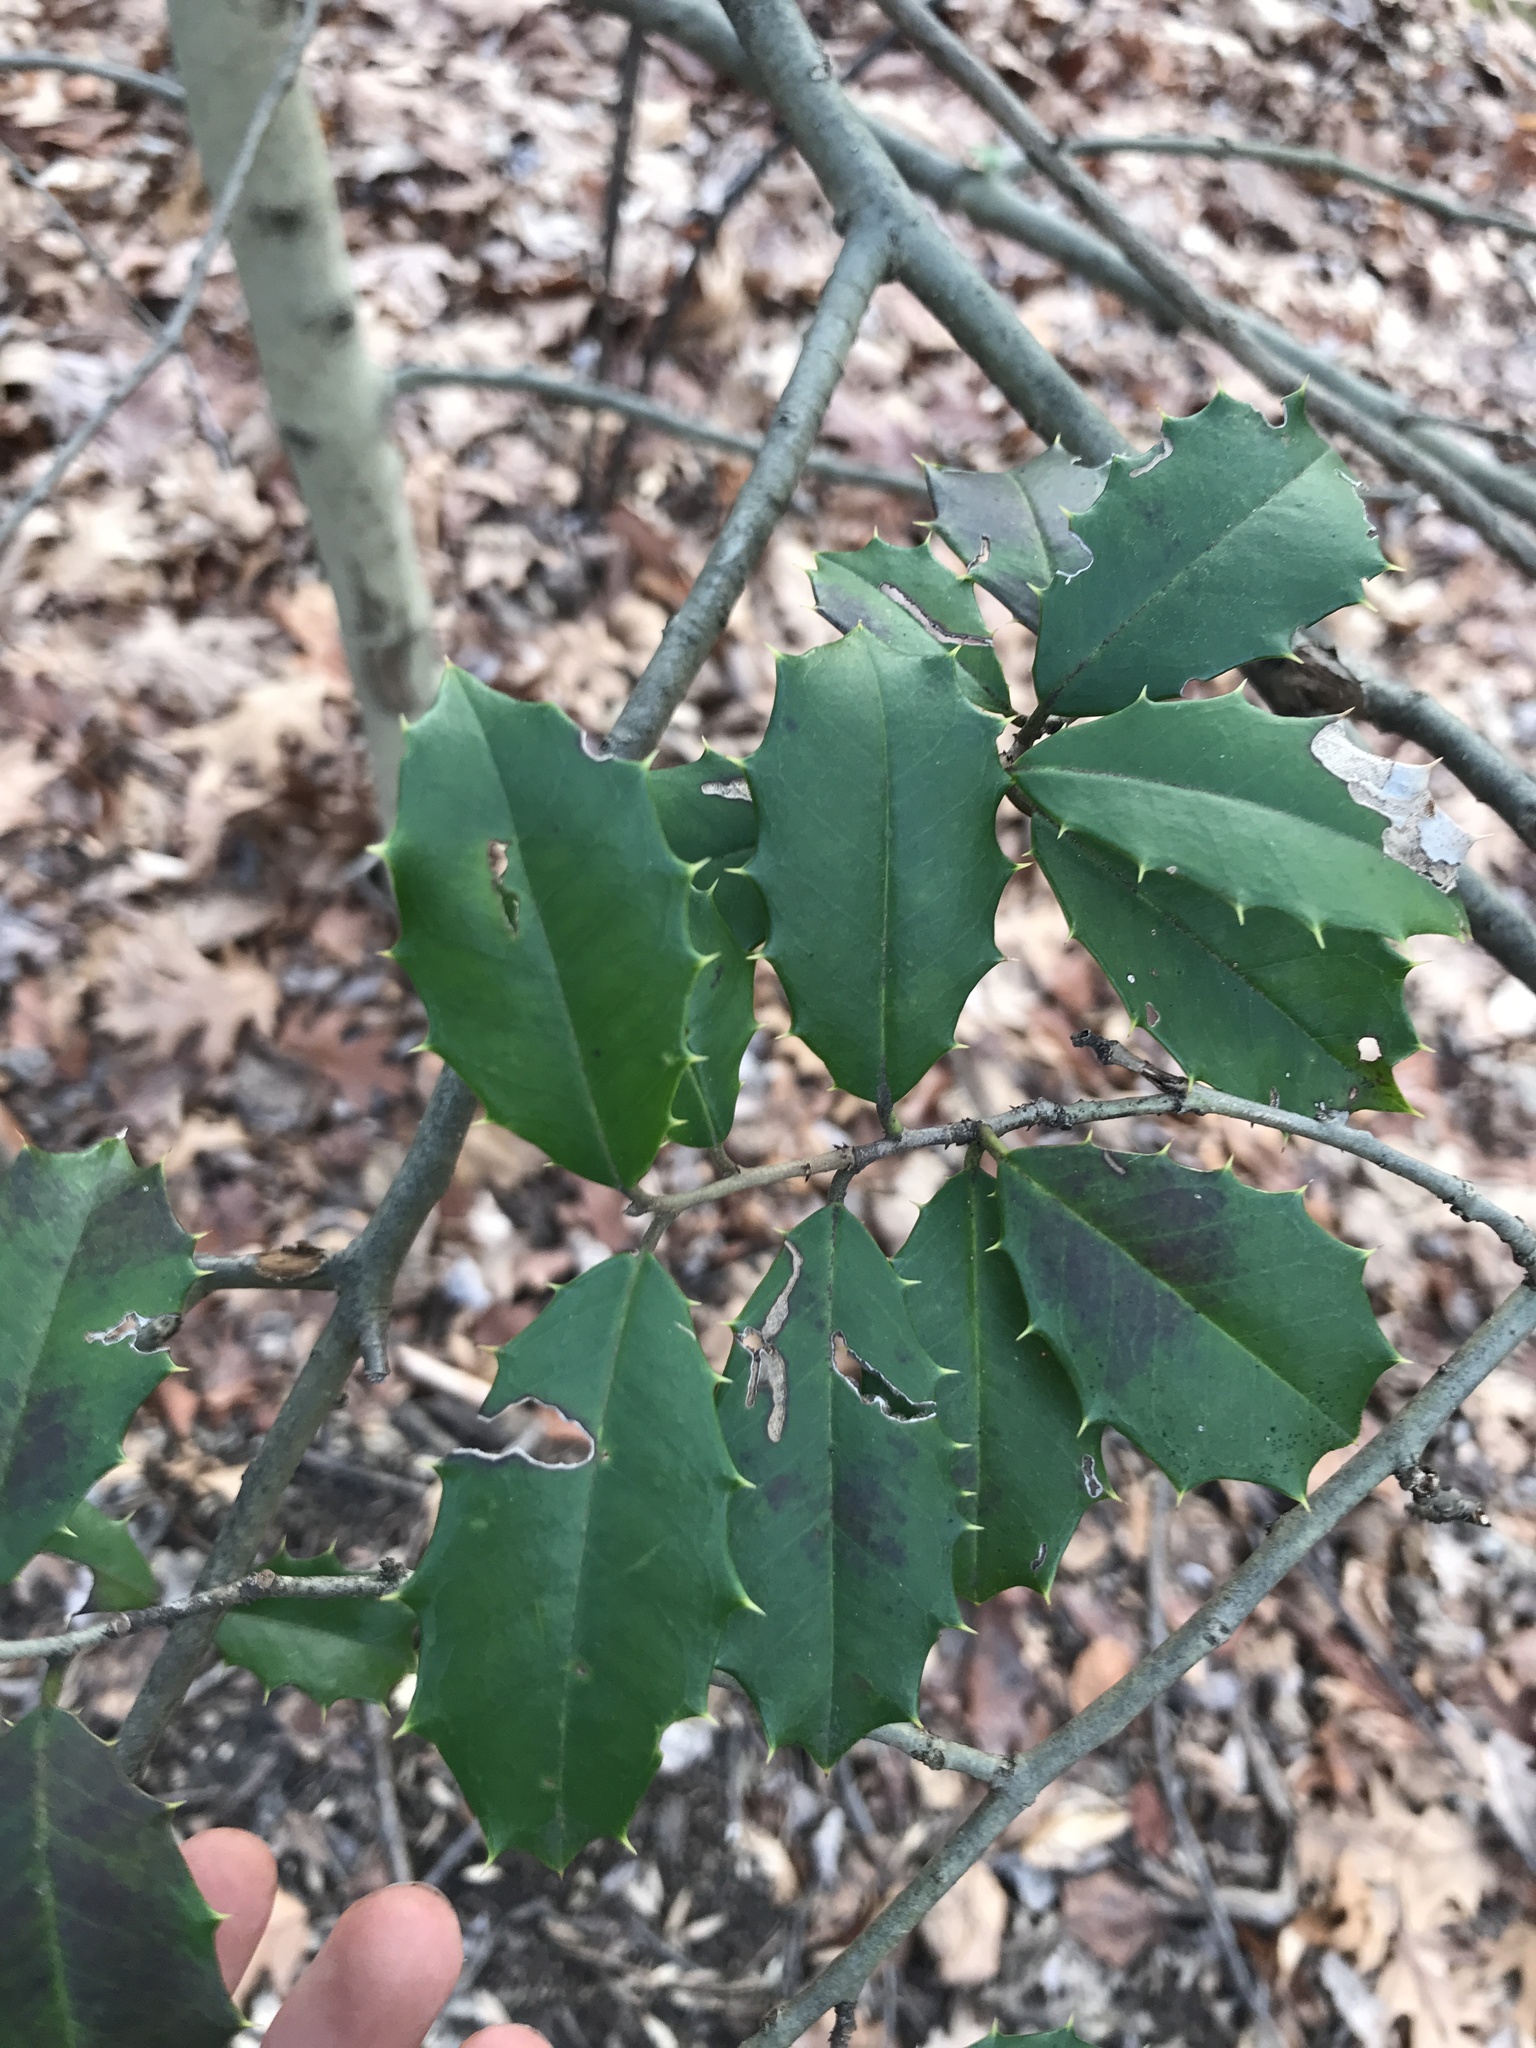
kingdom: Plantae
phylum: Tracheophyta
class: Magnoliopsida
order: Aquifoliales
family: Aquifoliaceae
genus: Ilex
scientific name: Ilex opaca
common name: American holly
